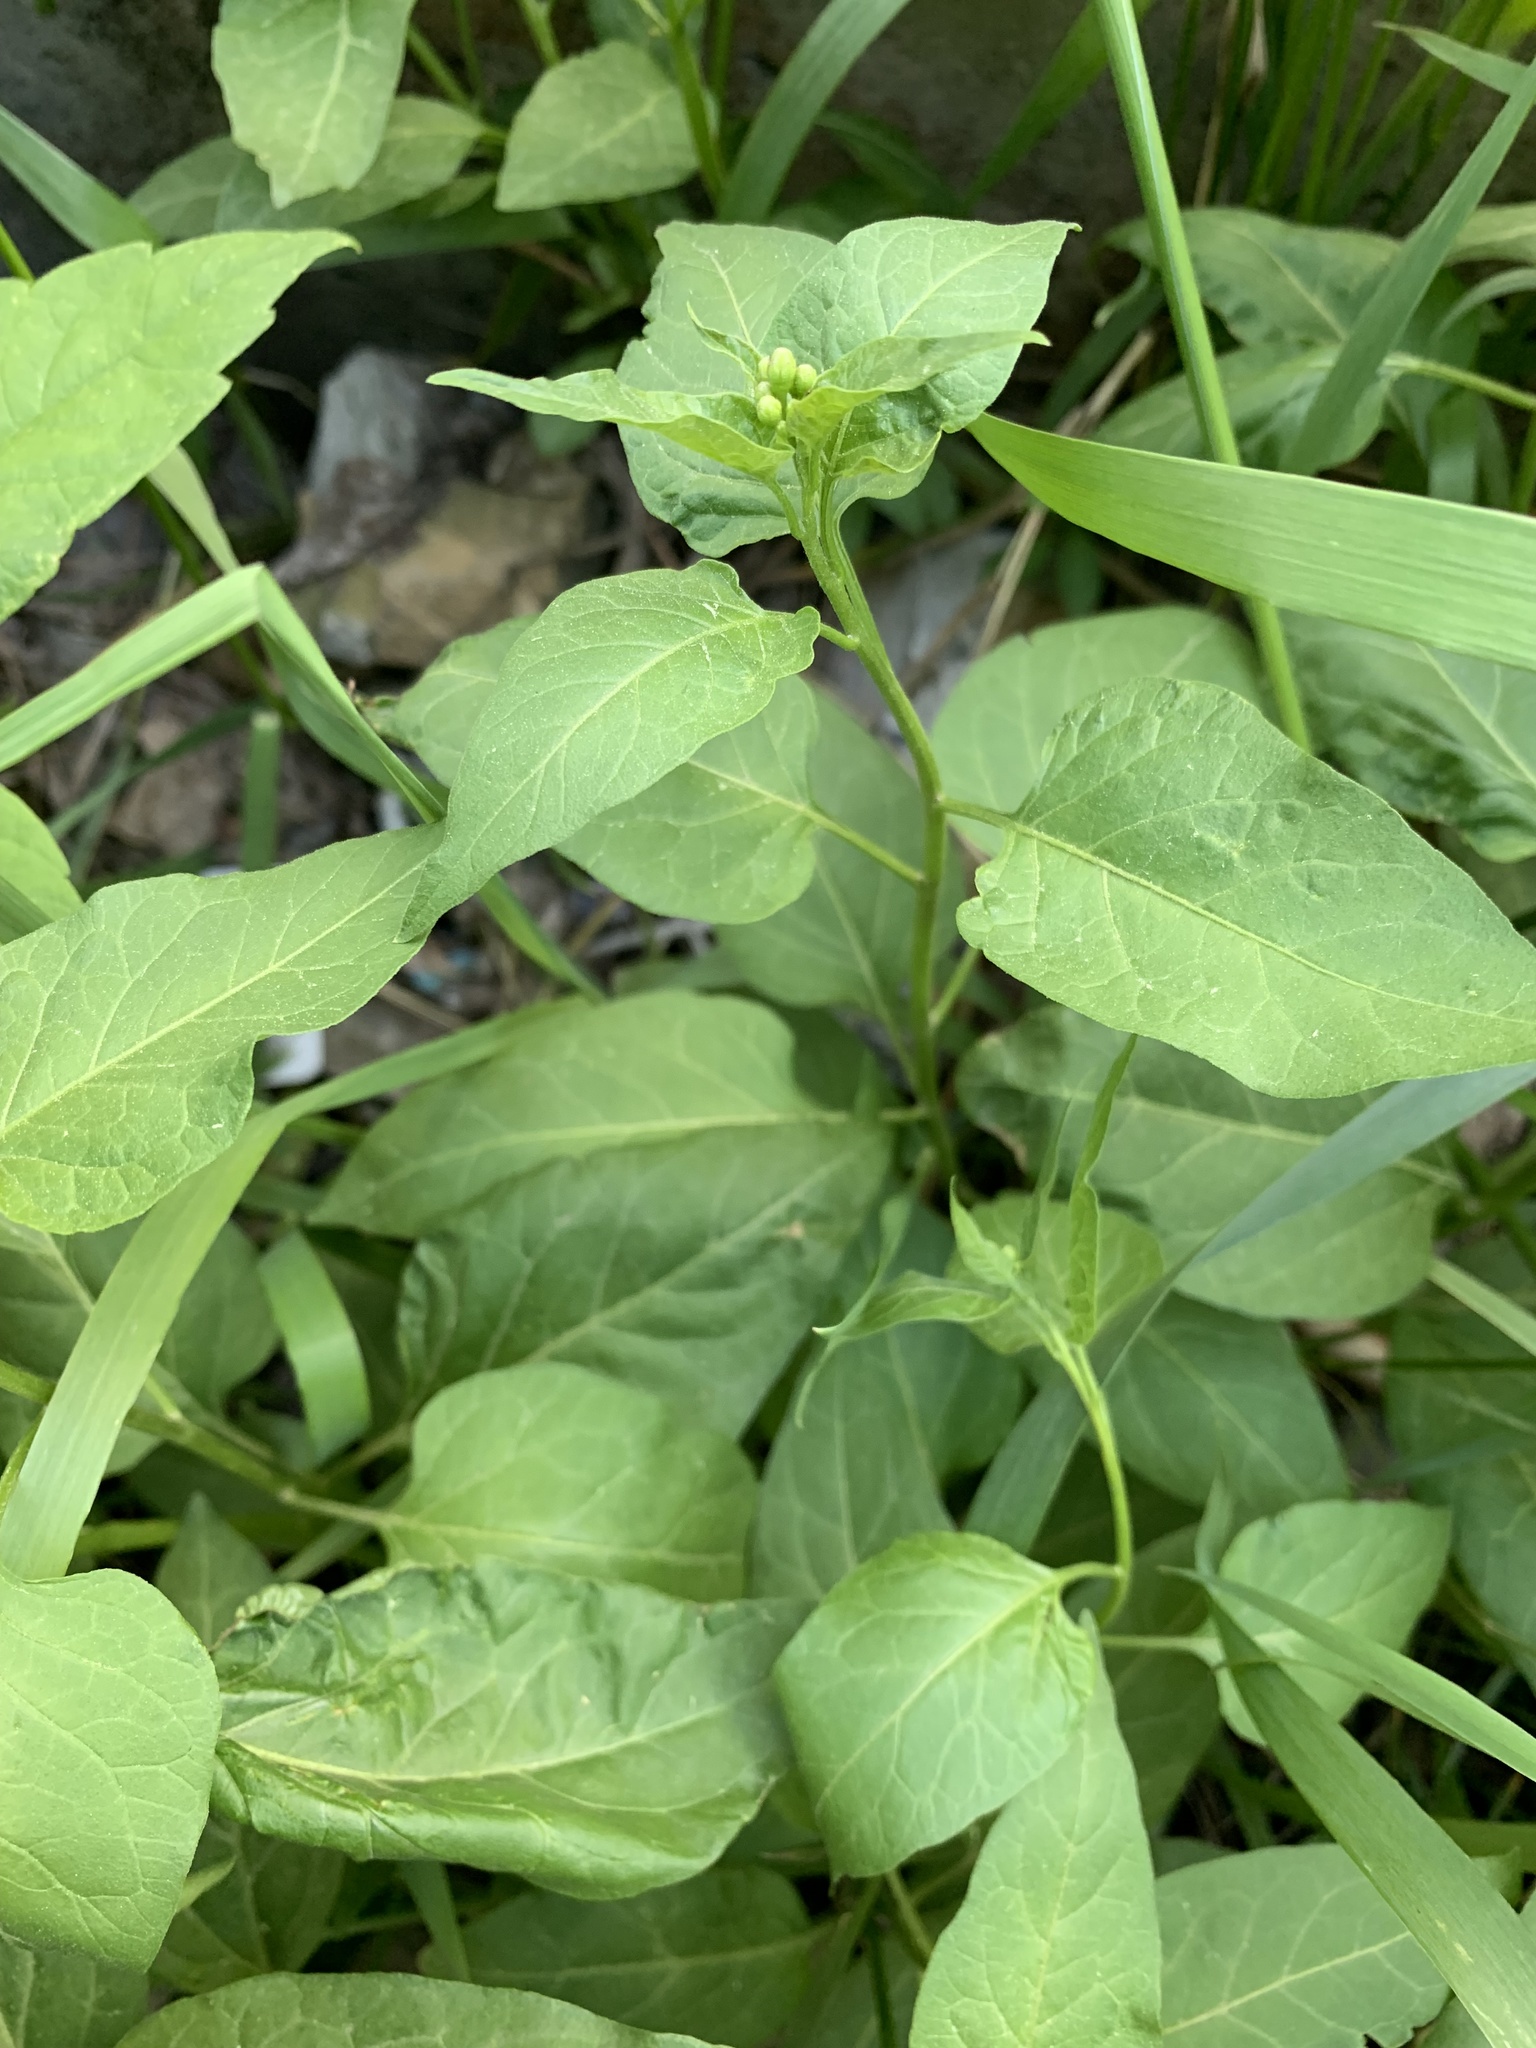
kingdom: Plantae
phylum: Tracheophyta
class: Magnoliopsida
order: Solanales
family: Solanaceae
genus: Solanum
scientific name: Solanum dulcamara
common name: Climbing nightshade
